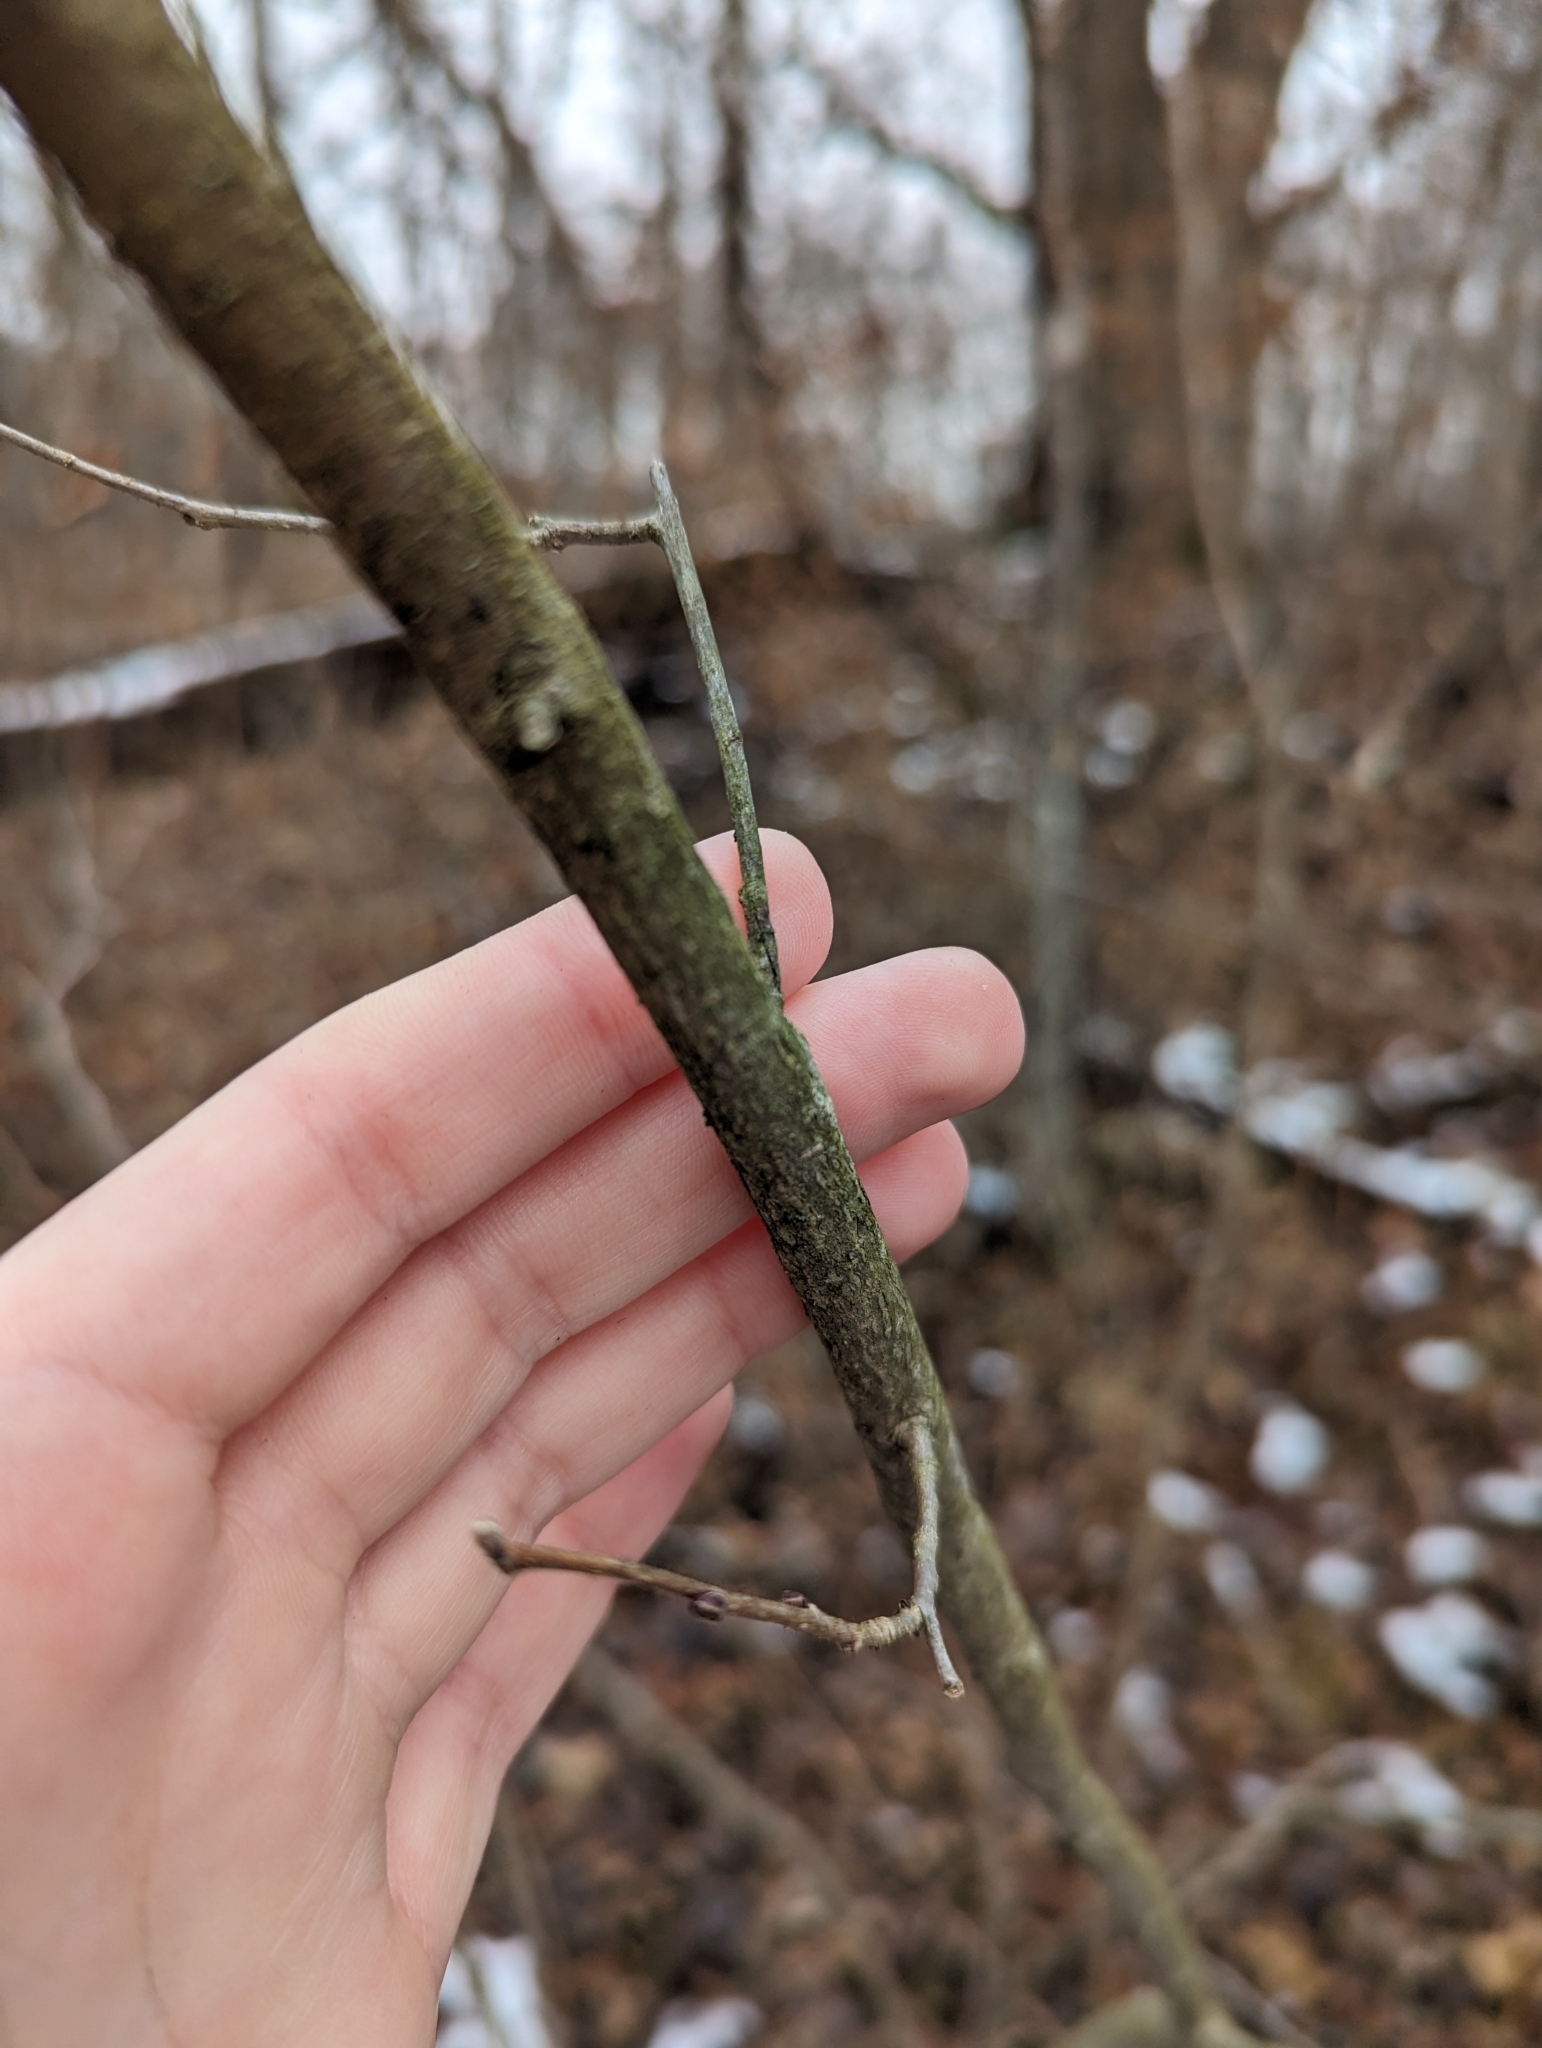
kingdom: Plantae
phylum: Tracheophyta
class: Magnoliopsida
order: Fagales
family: Betulaceae
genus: Corylus
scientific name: Corylus americana
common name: American hazel
